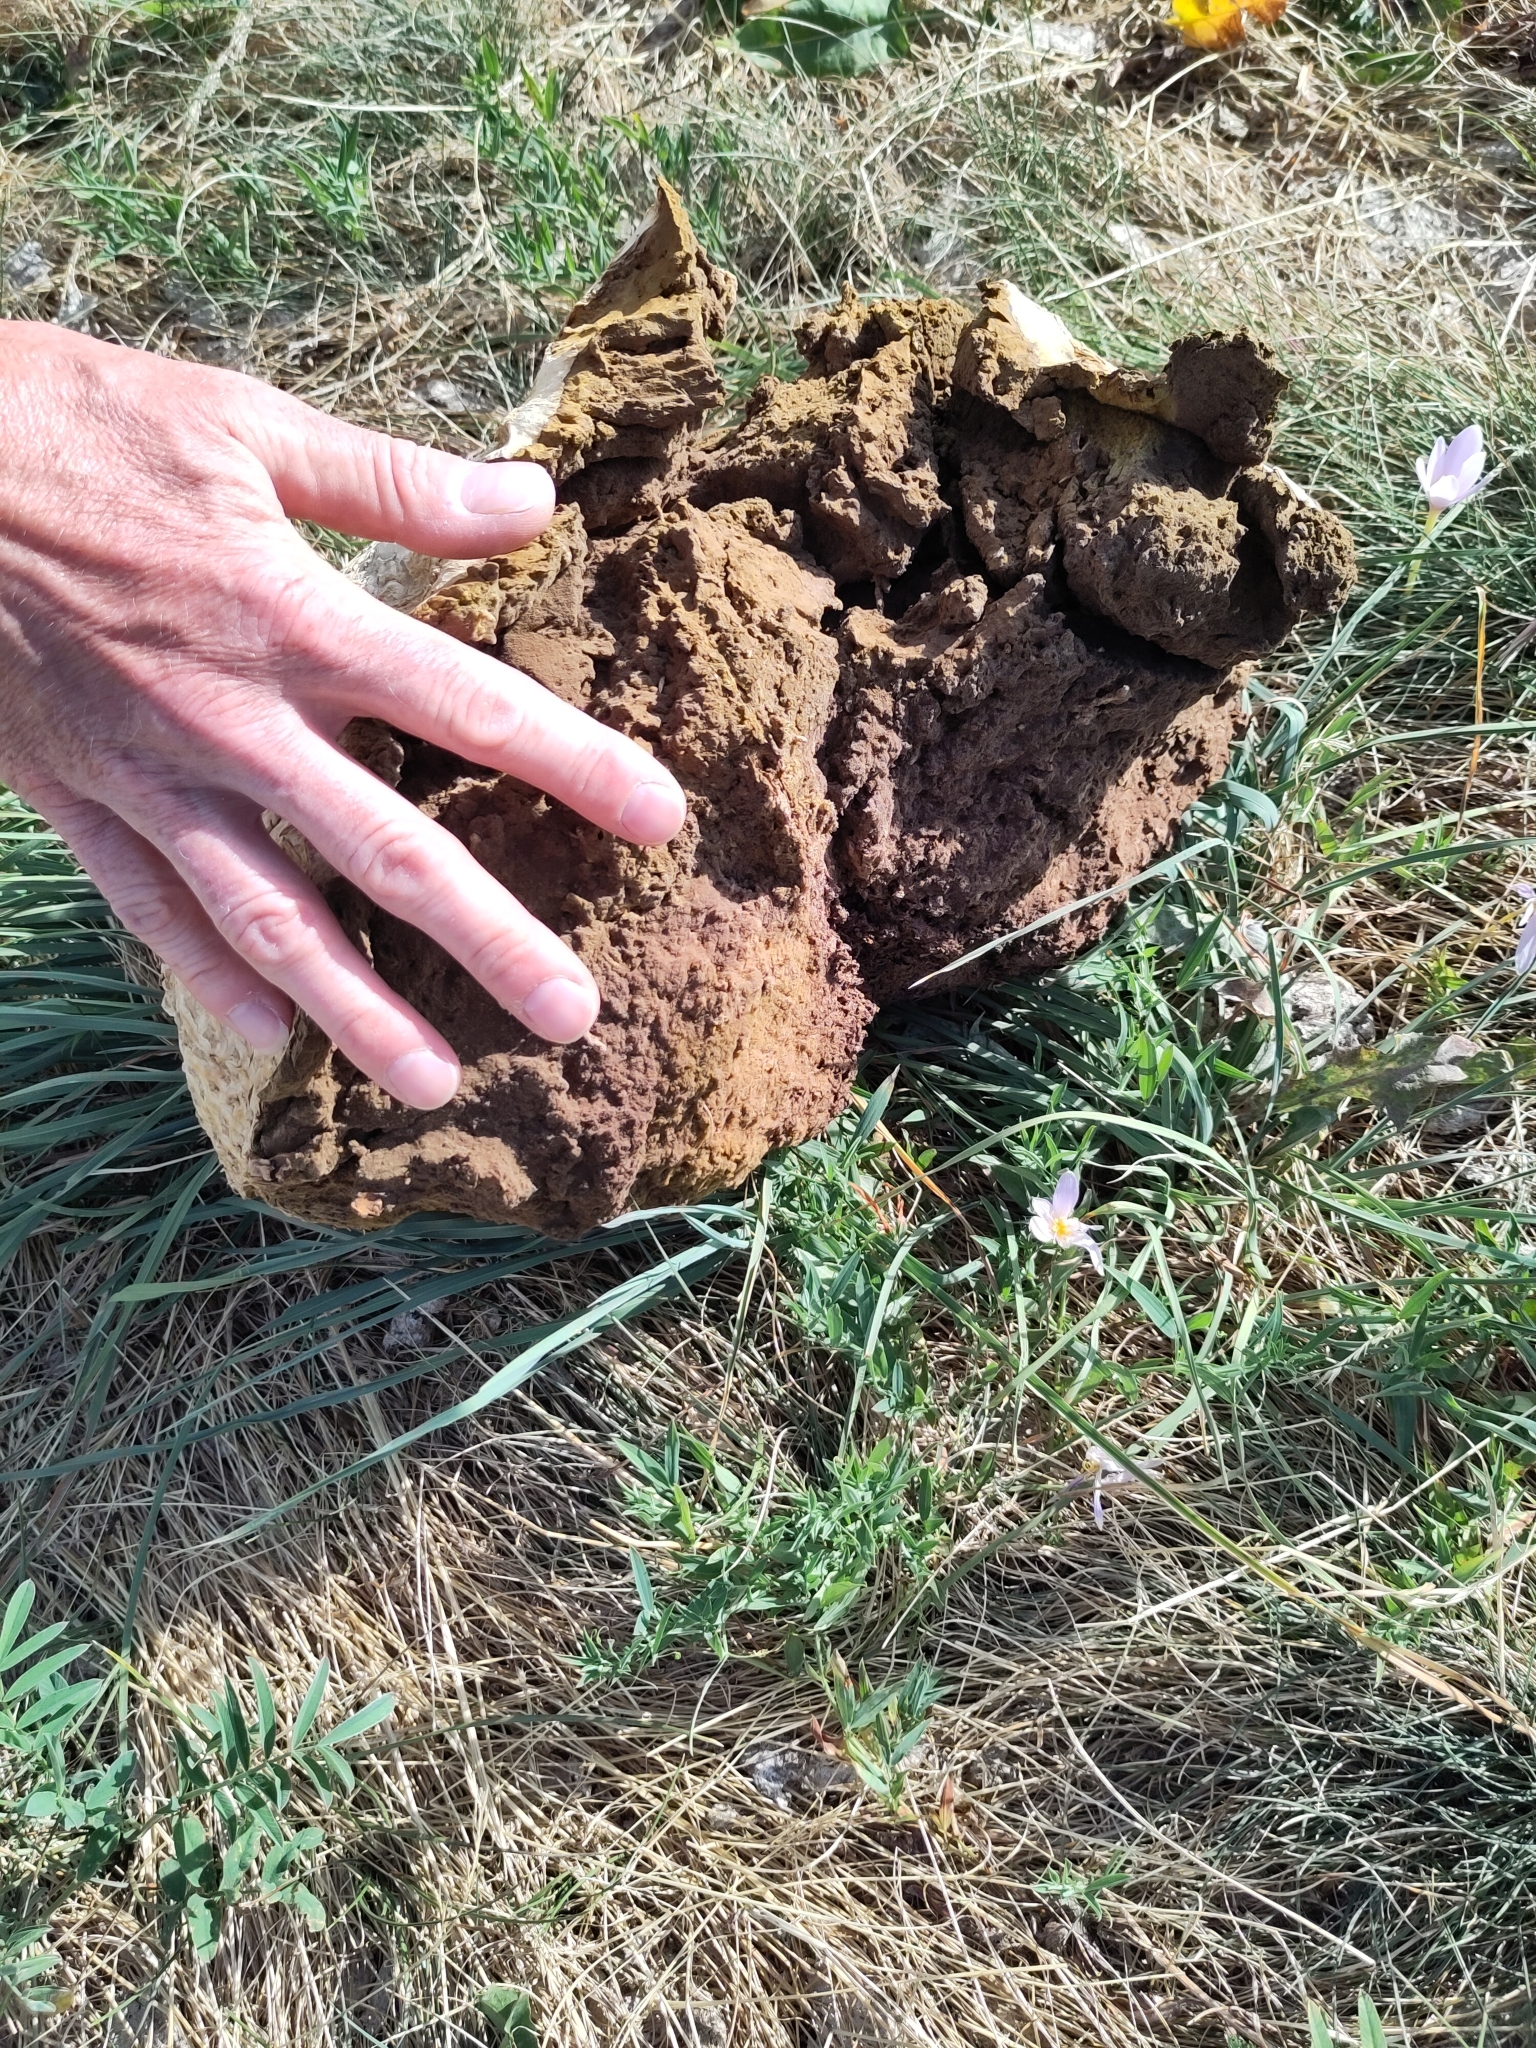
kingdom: Fungi
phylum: Basidiomycota
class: Agaricomycetes
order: Agaricales
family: Lycoperdaceae
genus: Calvatia
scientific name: Calvatia gigantea
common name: Giant puffball
